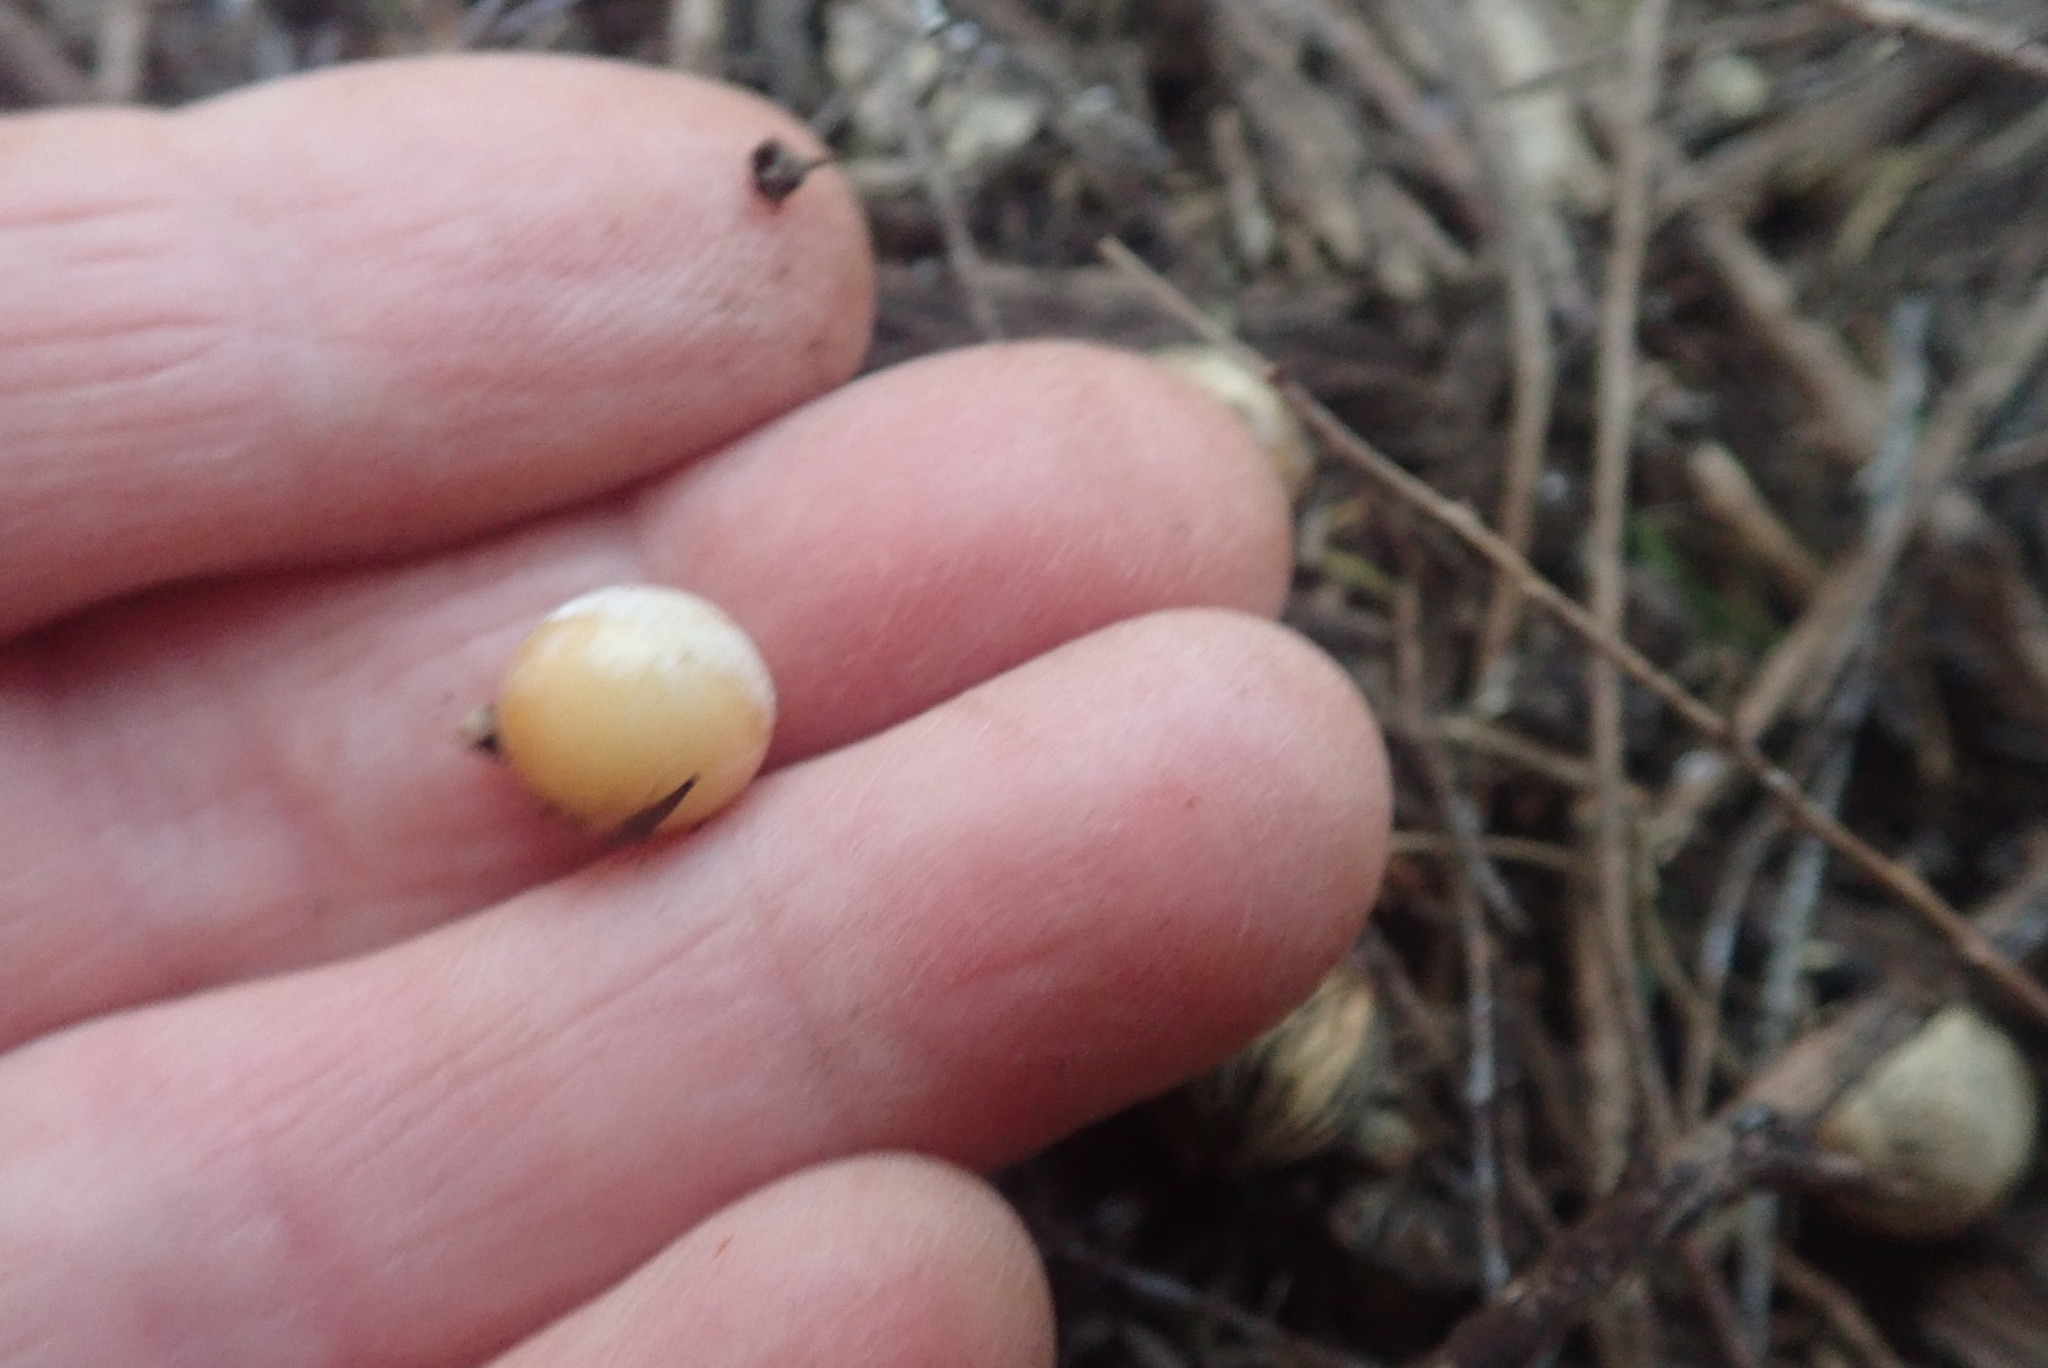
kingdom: Plantae
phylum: Tracheophyta
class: Liliopsida
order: Asparagales
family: Asparagaceae
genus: Dracaena
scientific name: Dracaena draco
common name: Canary island dragon tree
